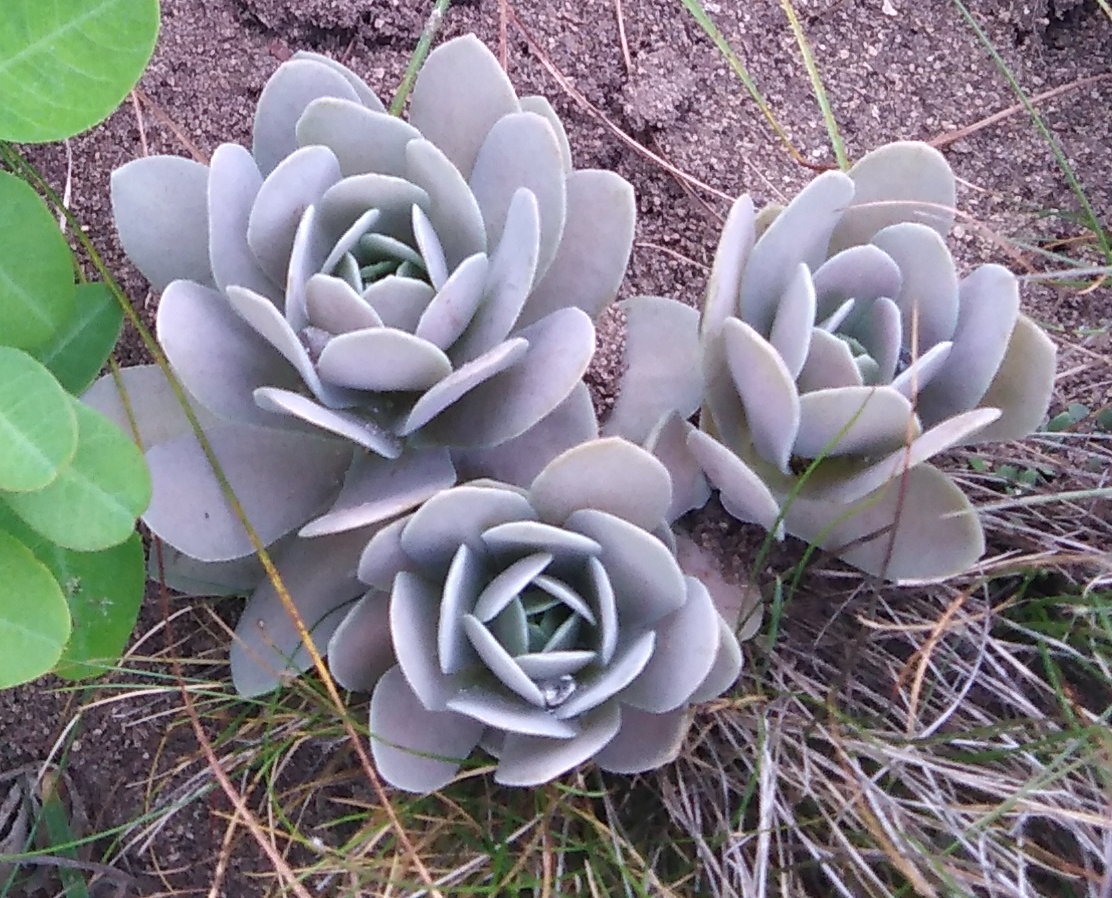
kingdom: Plantae
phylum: Tracheophyta
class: Magnoliopsida
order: Saxifragales
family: Crassulaceae
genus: Orostachys
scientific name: Orostachys malacophylla
